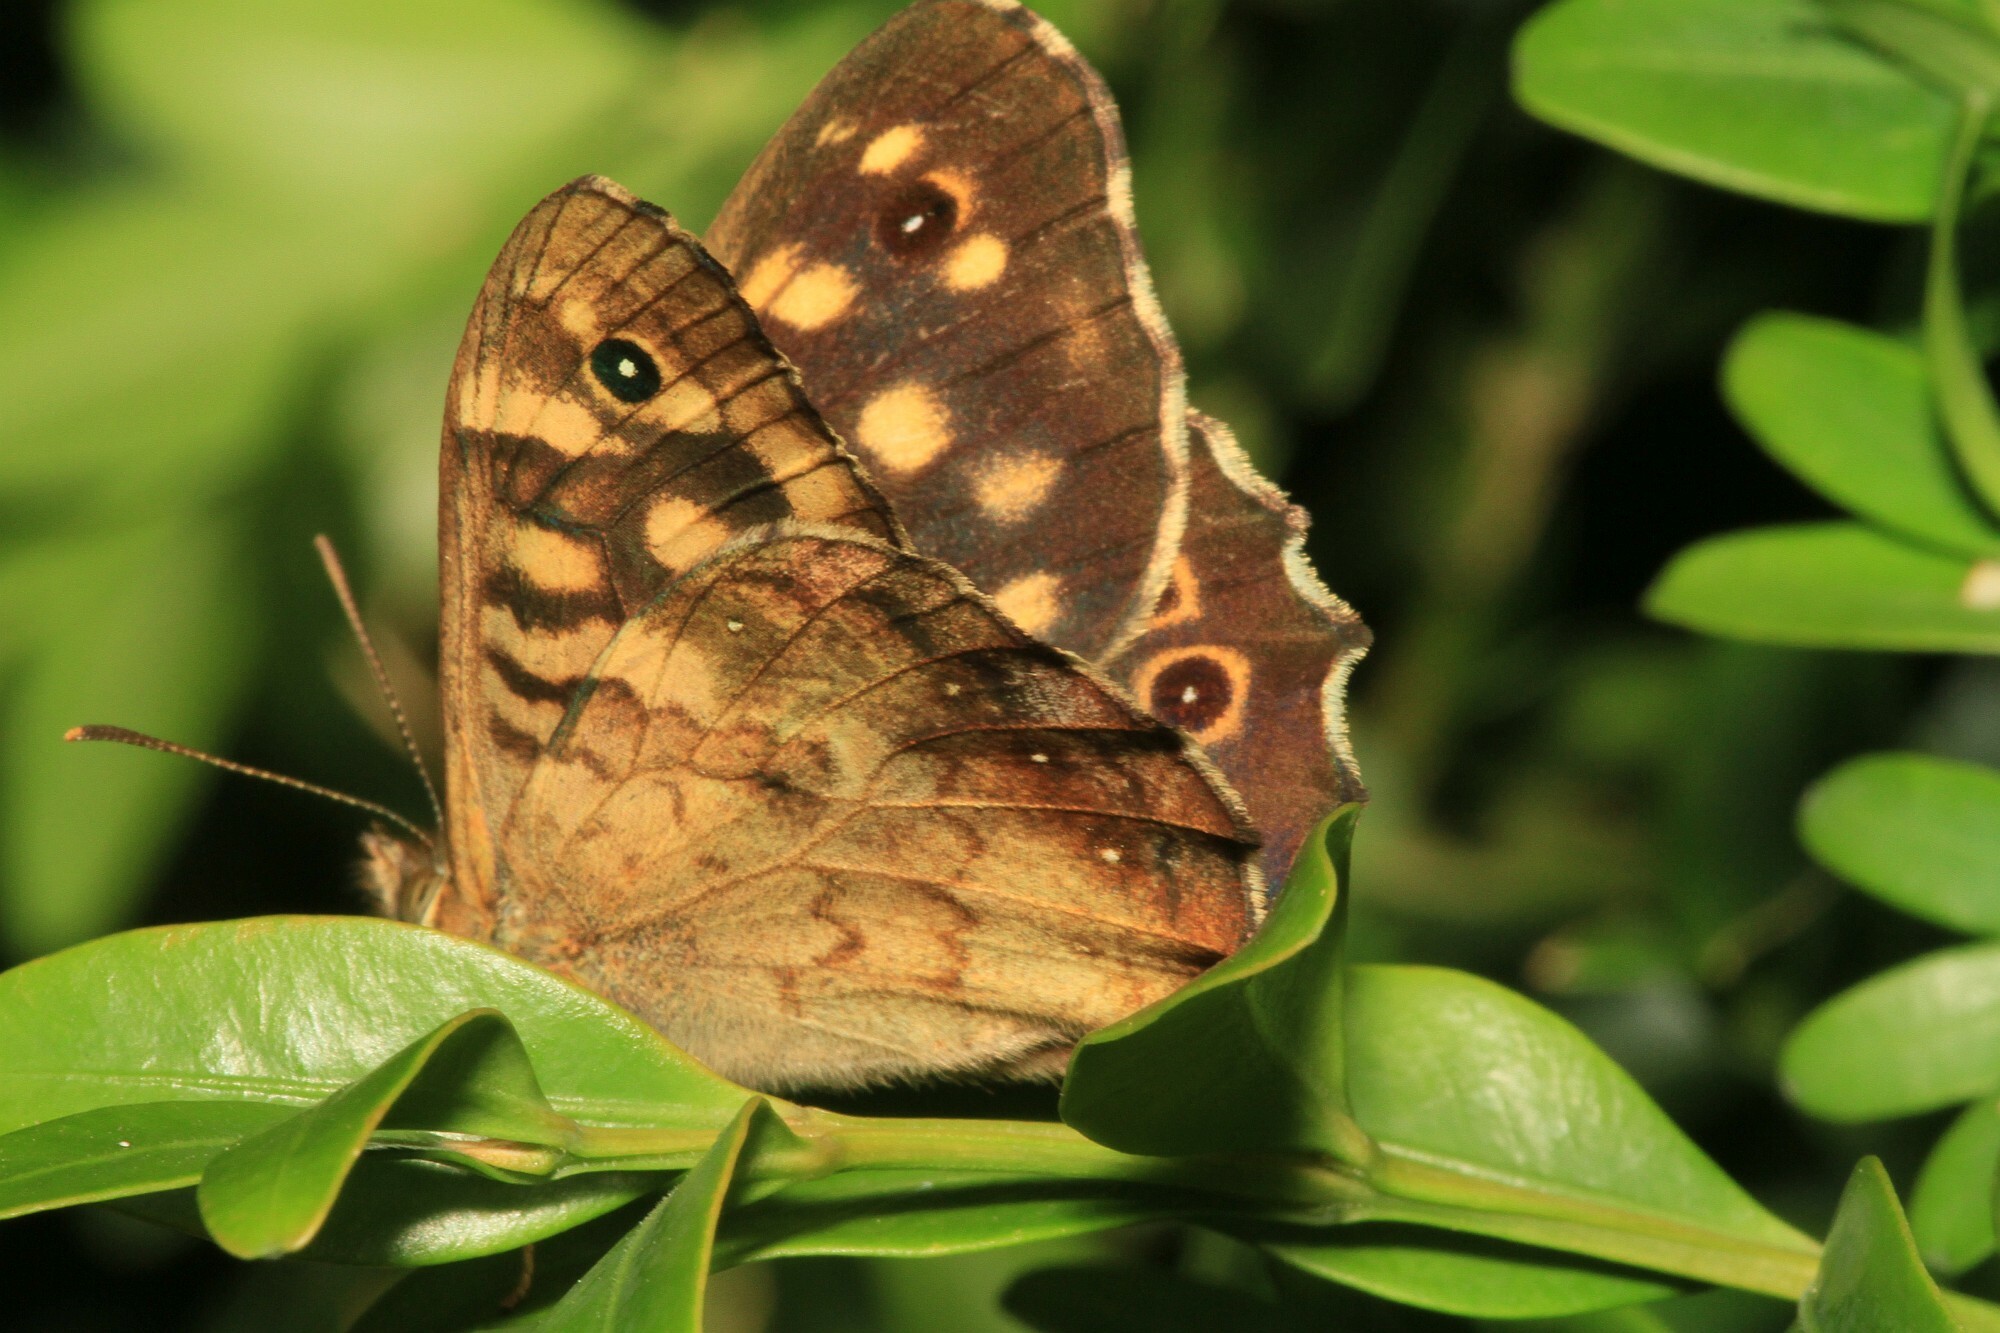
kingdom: Animalia
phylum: Arthropoda
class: Insecta
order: Lepidoptera
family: Nymphalidae
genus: Pararge
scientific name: Pararge aegeria
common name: Speckled wood
